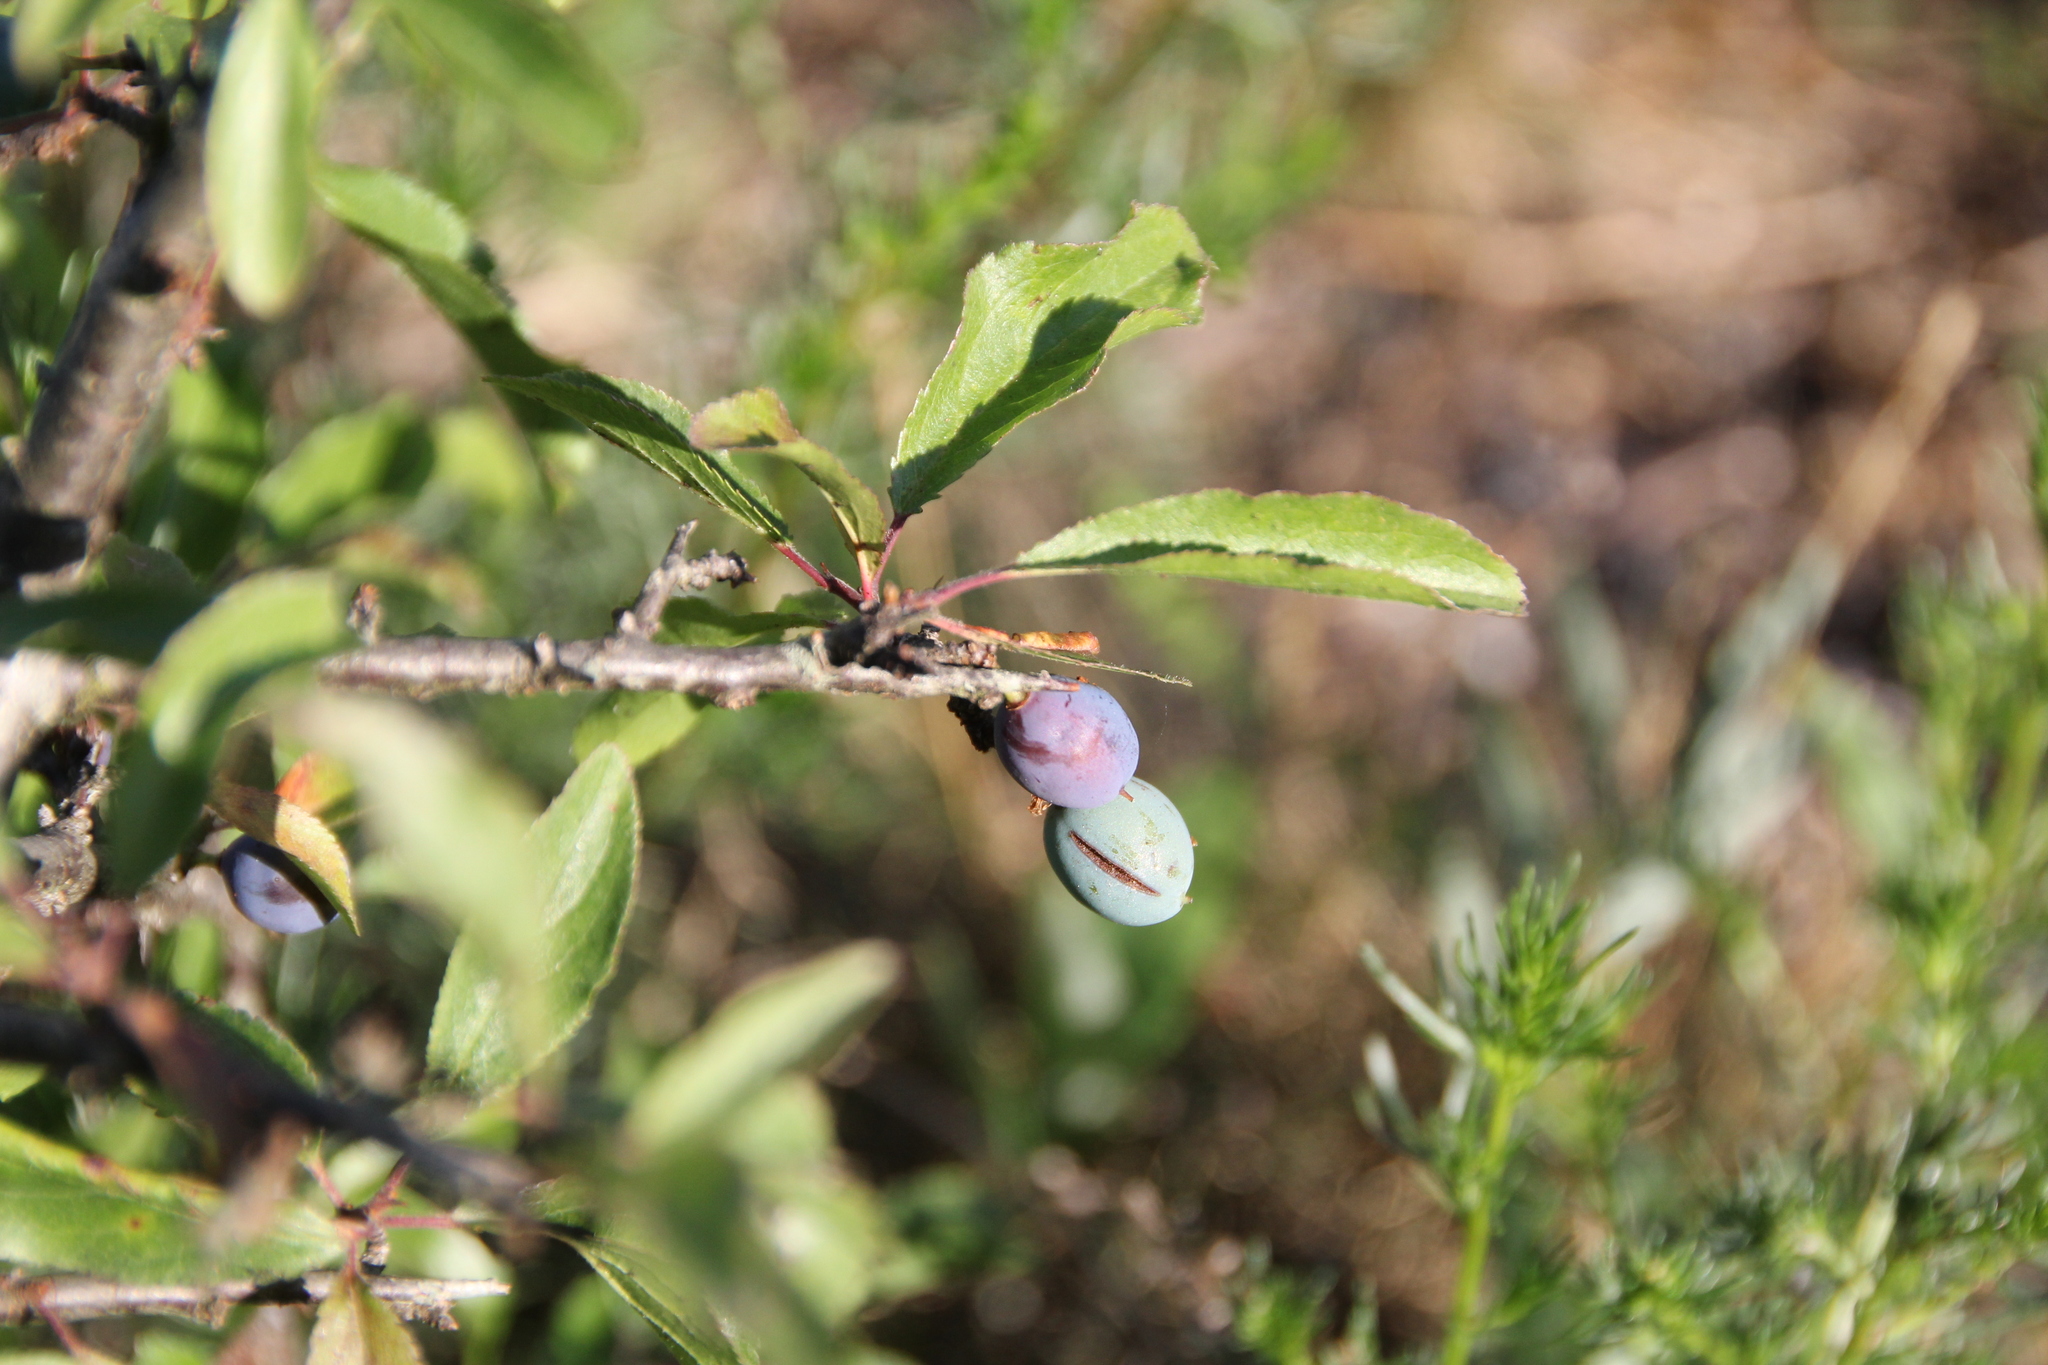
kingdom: Plantae
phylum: Tracheophyta
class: Magnoliopsida
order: Rosales
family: Rosaceae
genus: Prunus
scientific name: Prunus spinosa
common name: Blackthorn
